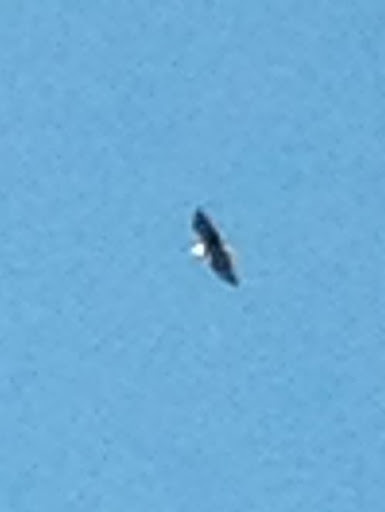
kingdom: Animalia
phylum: Chordata
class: Aves
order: Accipitriformes
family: Accipitridae
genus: Haliaeetus
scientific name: Haliaeetus leucocephalus
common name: Bald eagle
